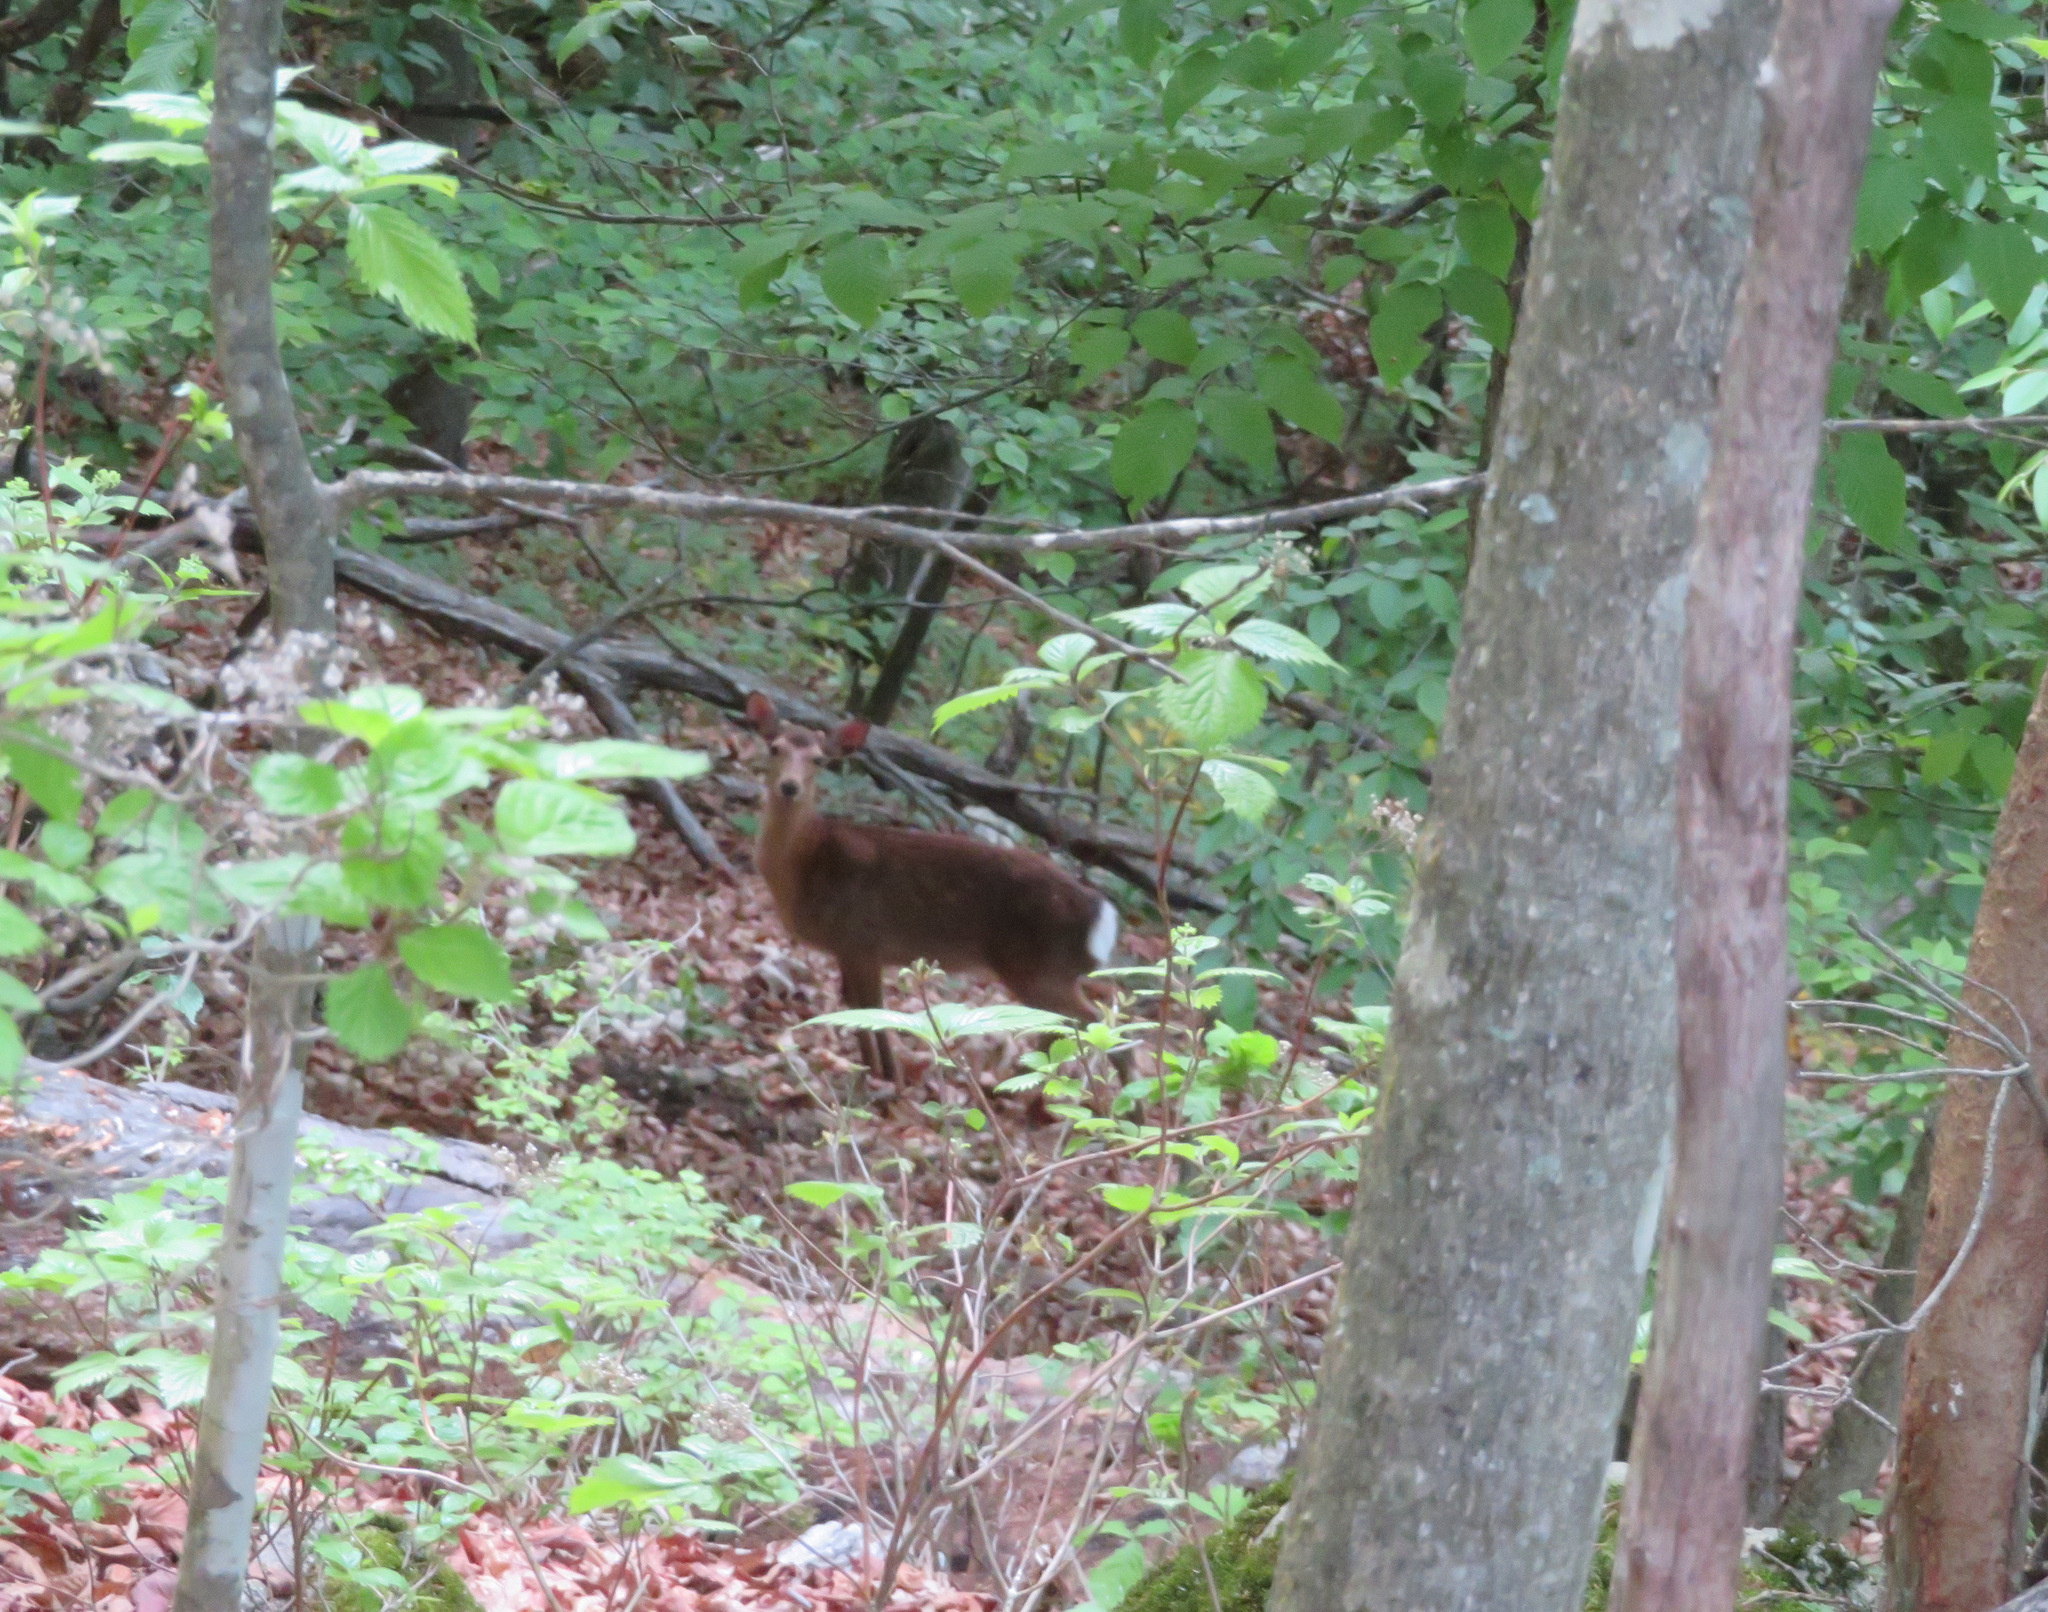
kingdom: Animalia
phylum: Chordata
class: Mammalia
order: Artiodactyla
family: Cervidae
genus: Cervus
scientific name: Cervus nippon
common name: Sika deer
